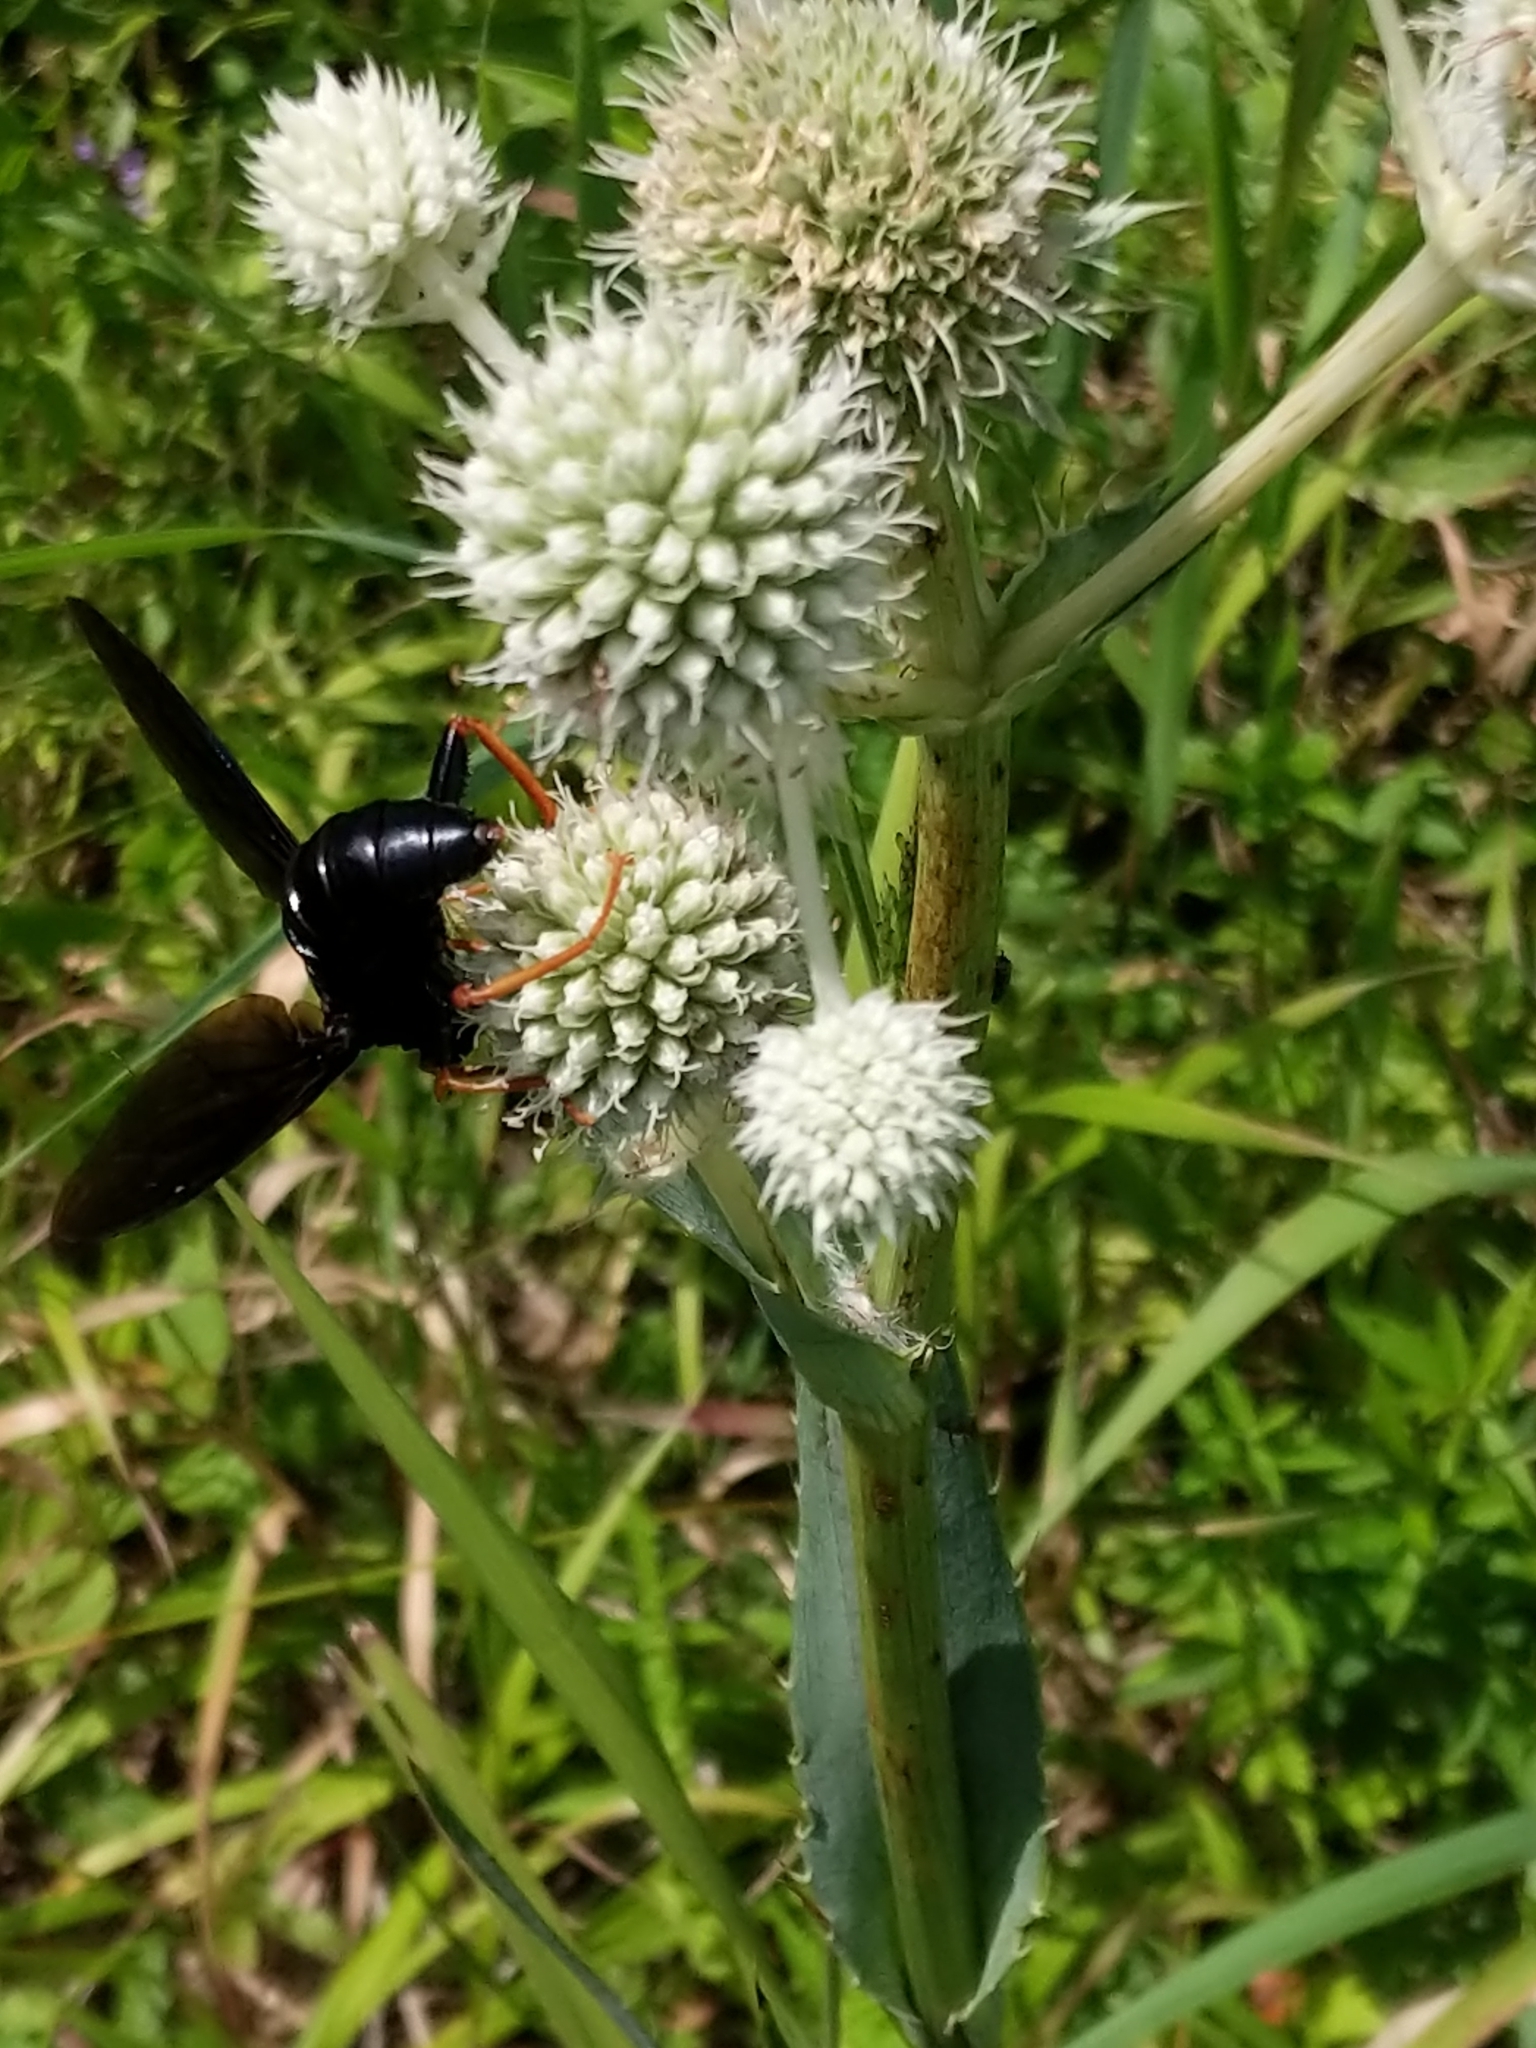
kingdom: Animalia
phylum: Arthropoda
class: Insecta
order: Diptera
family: Mydidae
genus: Mydas
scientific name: Mydas tibialis
